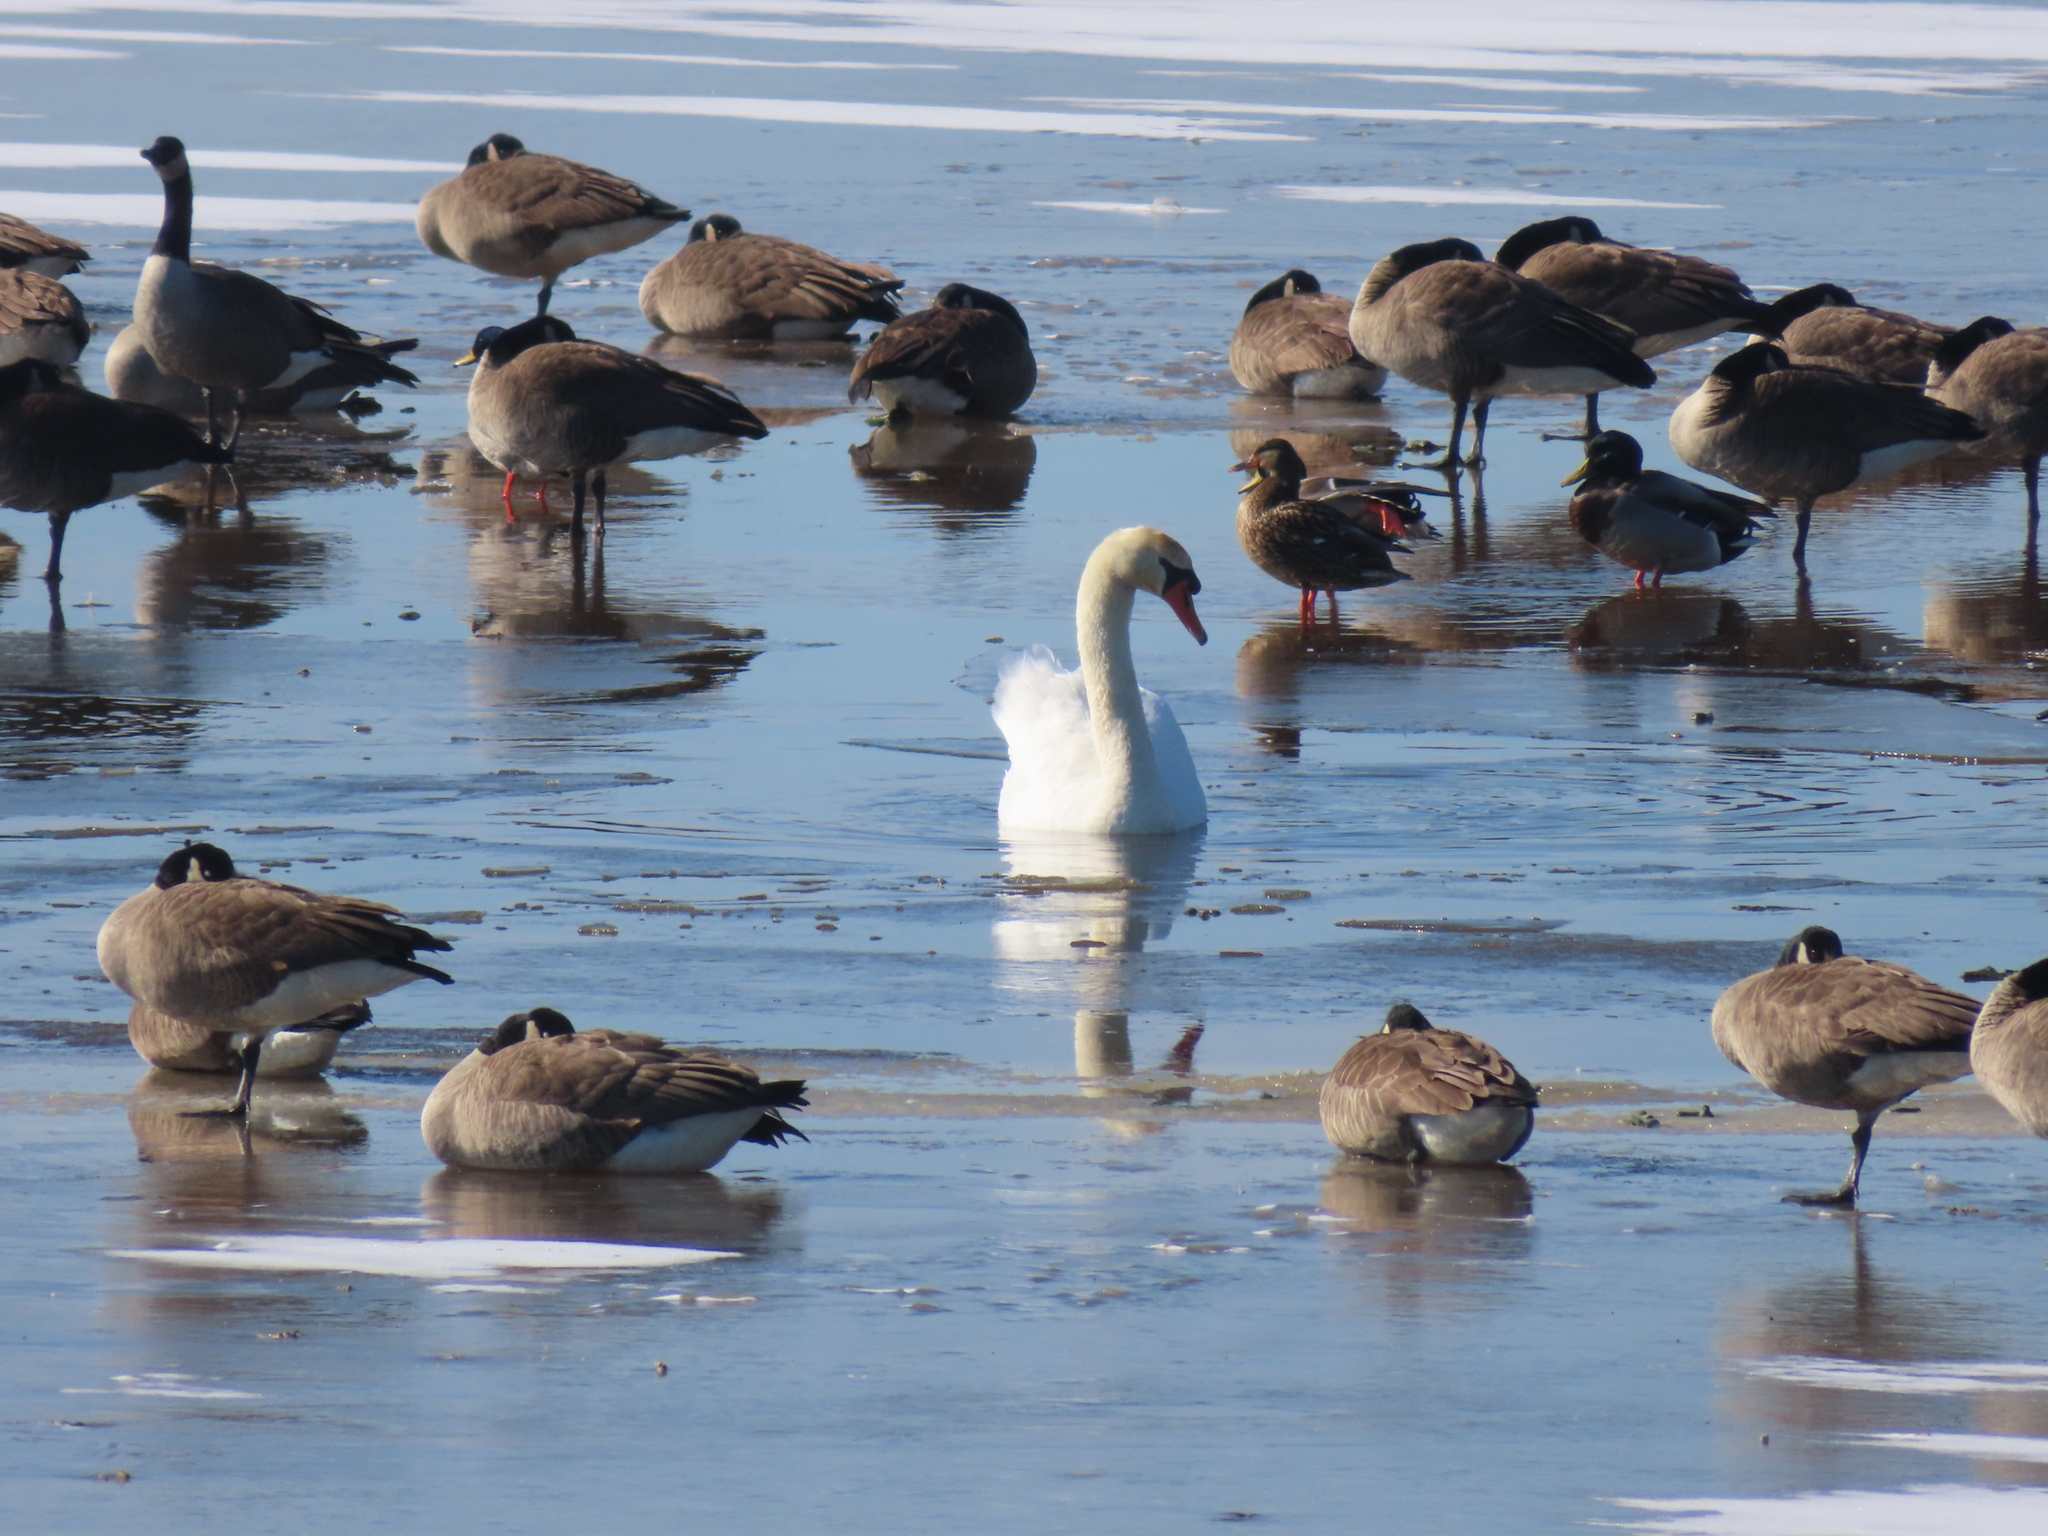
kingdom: Animalia
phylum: Chordata
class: Aves
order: Anseriformes
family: Anatidae
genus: Cygnus
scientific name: Cygnus olor
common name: Mute swan
